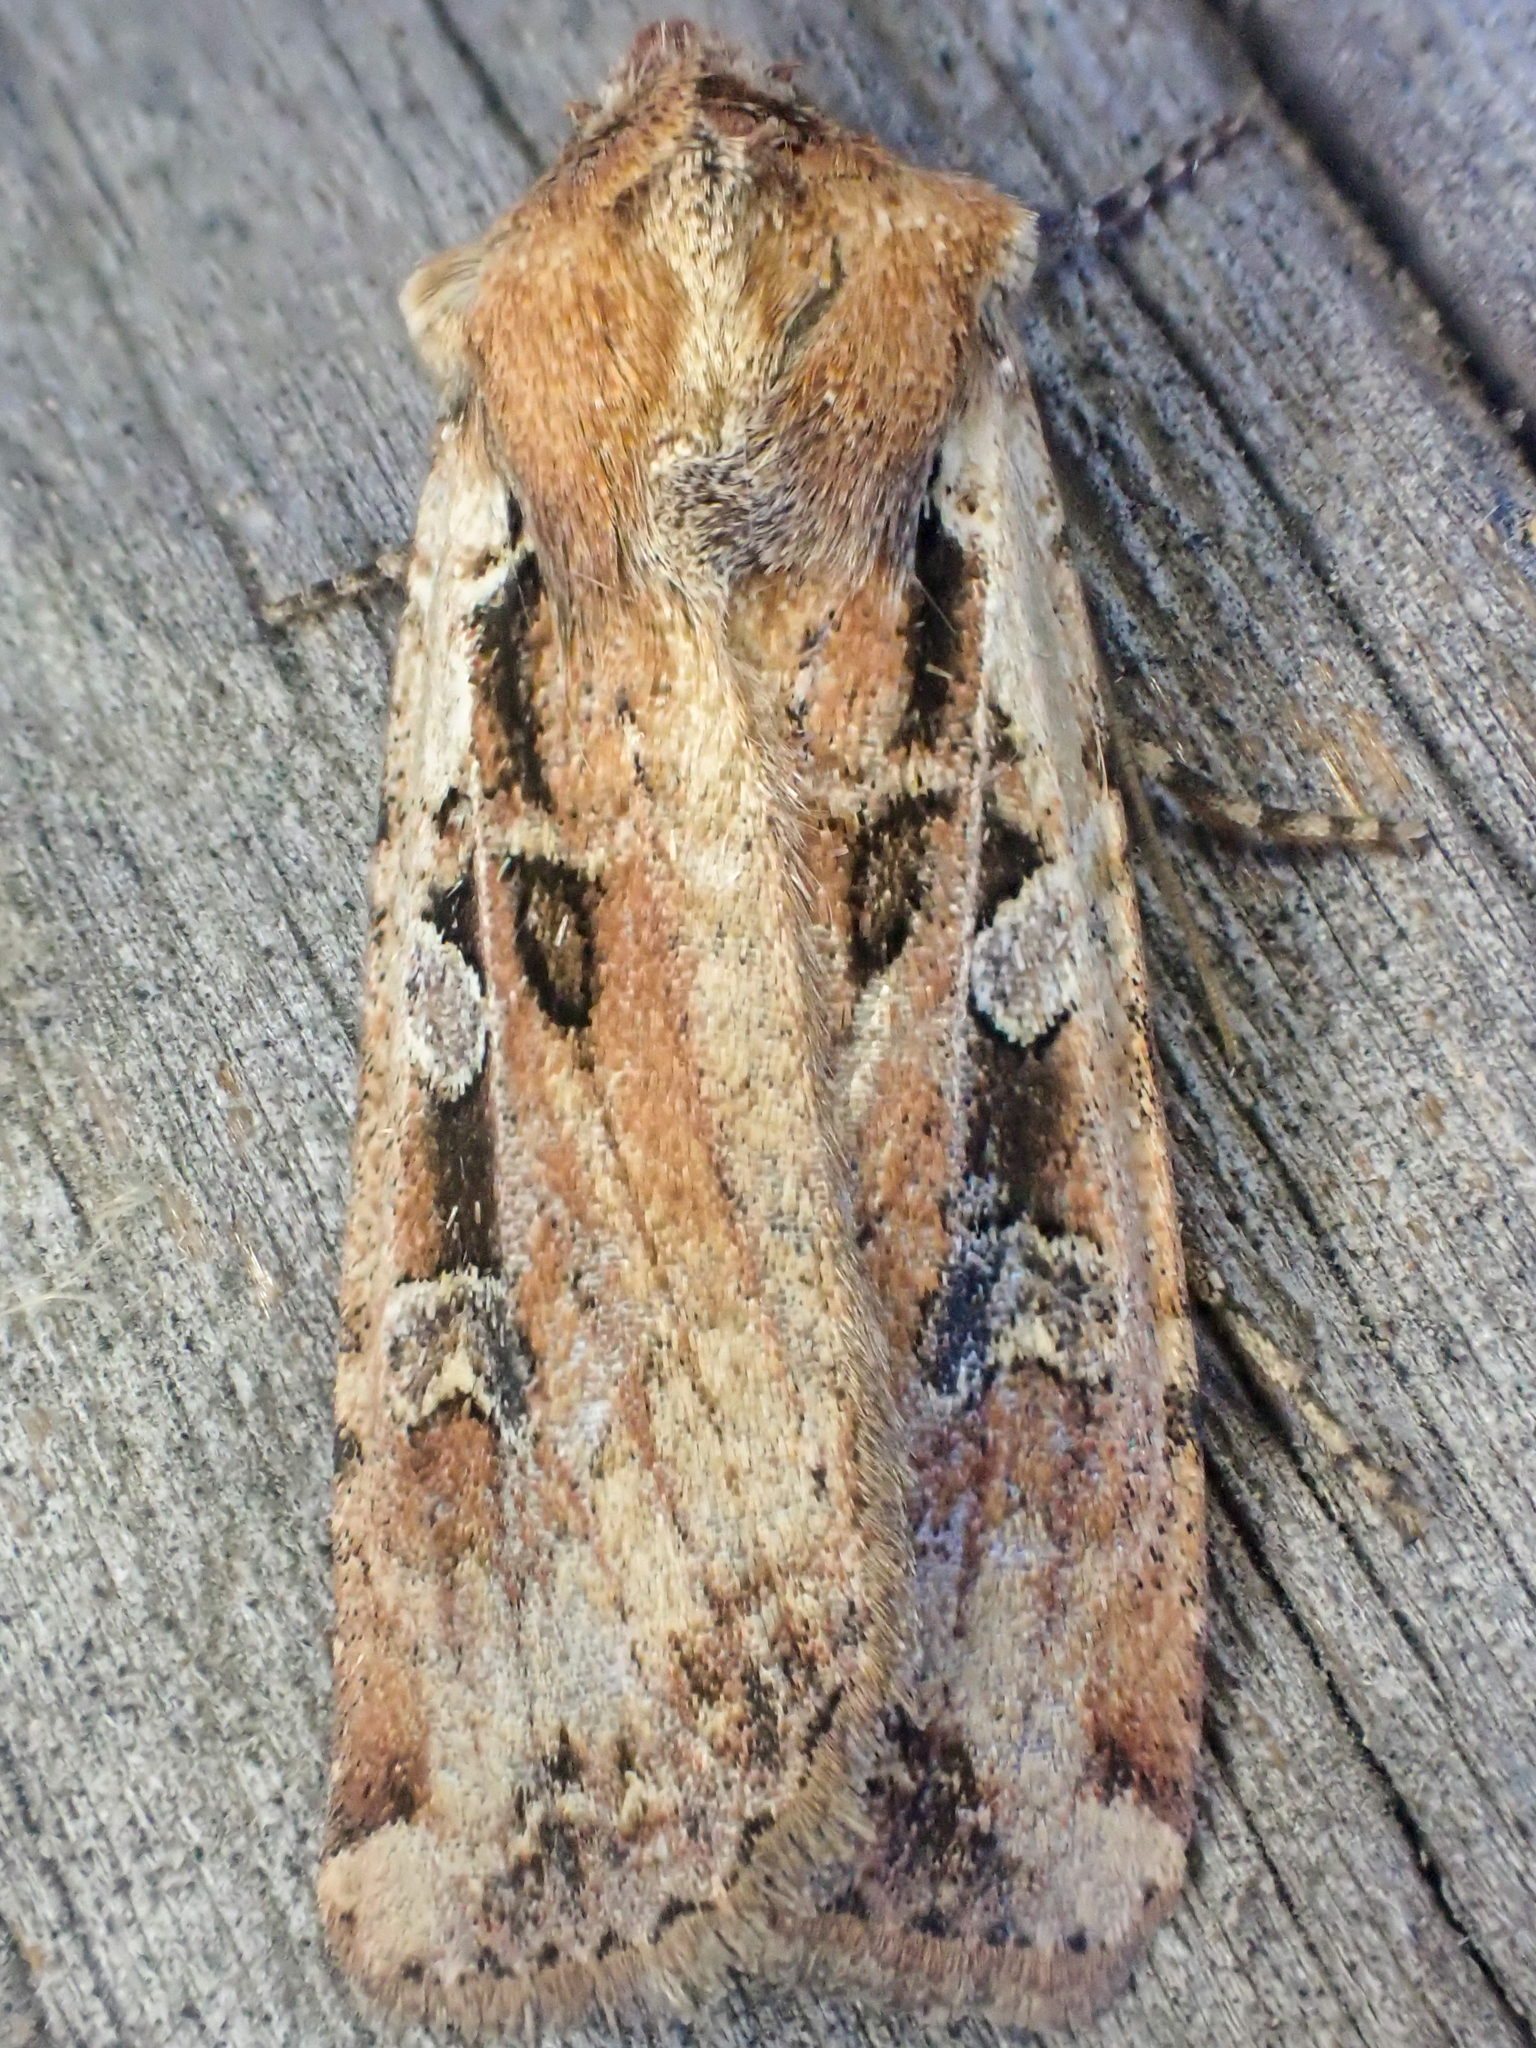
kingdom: Animalia
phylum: Arthropoda
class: Insecta
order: Lepidoptera
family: Noctuidae
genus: Euxoa
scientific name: Euxoa ochrogaster
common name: Red-backed cutworm moth
